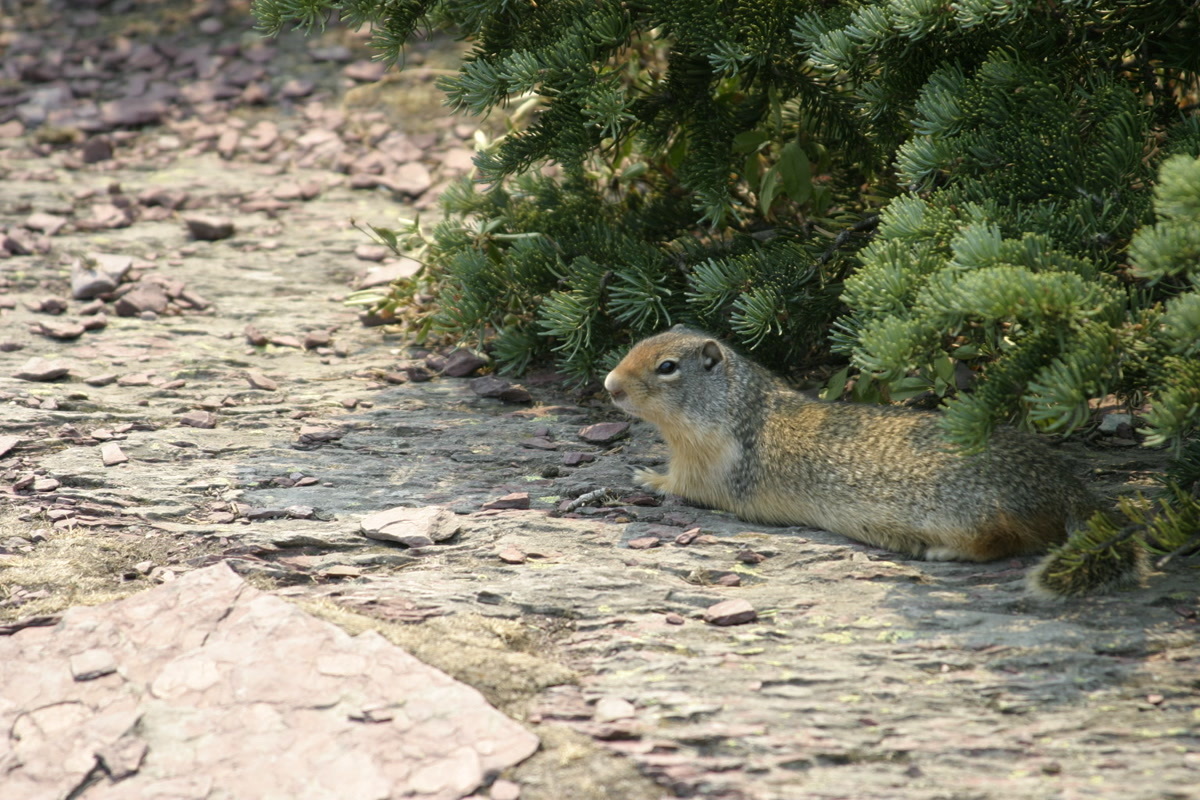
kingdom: Animalia
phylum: Chordata
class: Mammalia
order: Rodentia
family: Sciuridae
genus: Urocitellus
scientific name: Urocitellus columbianus
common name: Columbian ground squirrel
